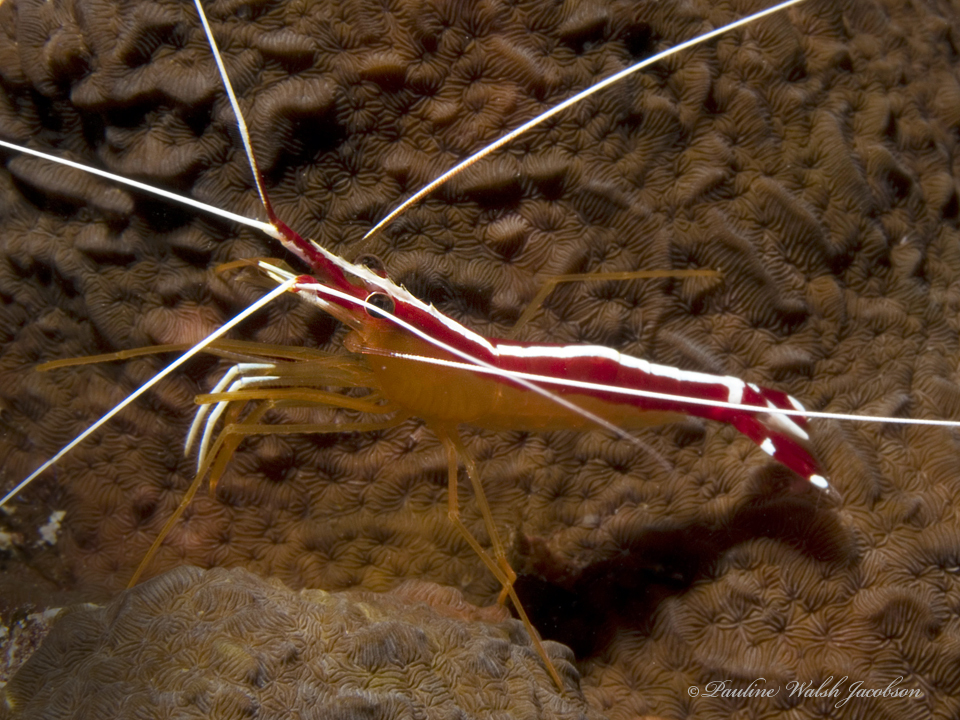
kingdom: Animalia
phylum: Arthropoda
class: Malacostraca
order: Decapoda
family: Lysmatidae
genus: Lysmata
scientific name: Lysmata amboinensis
